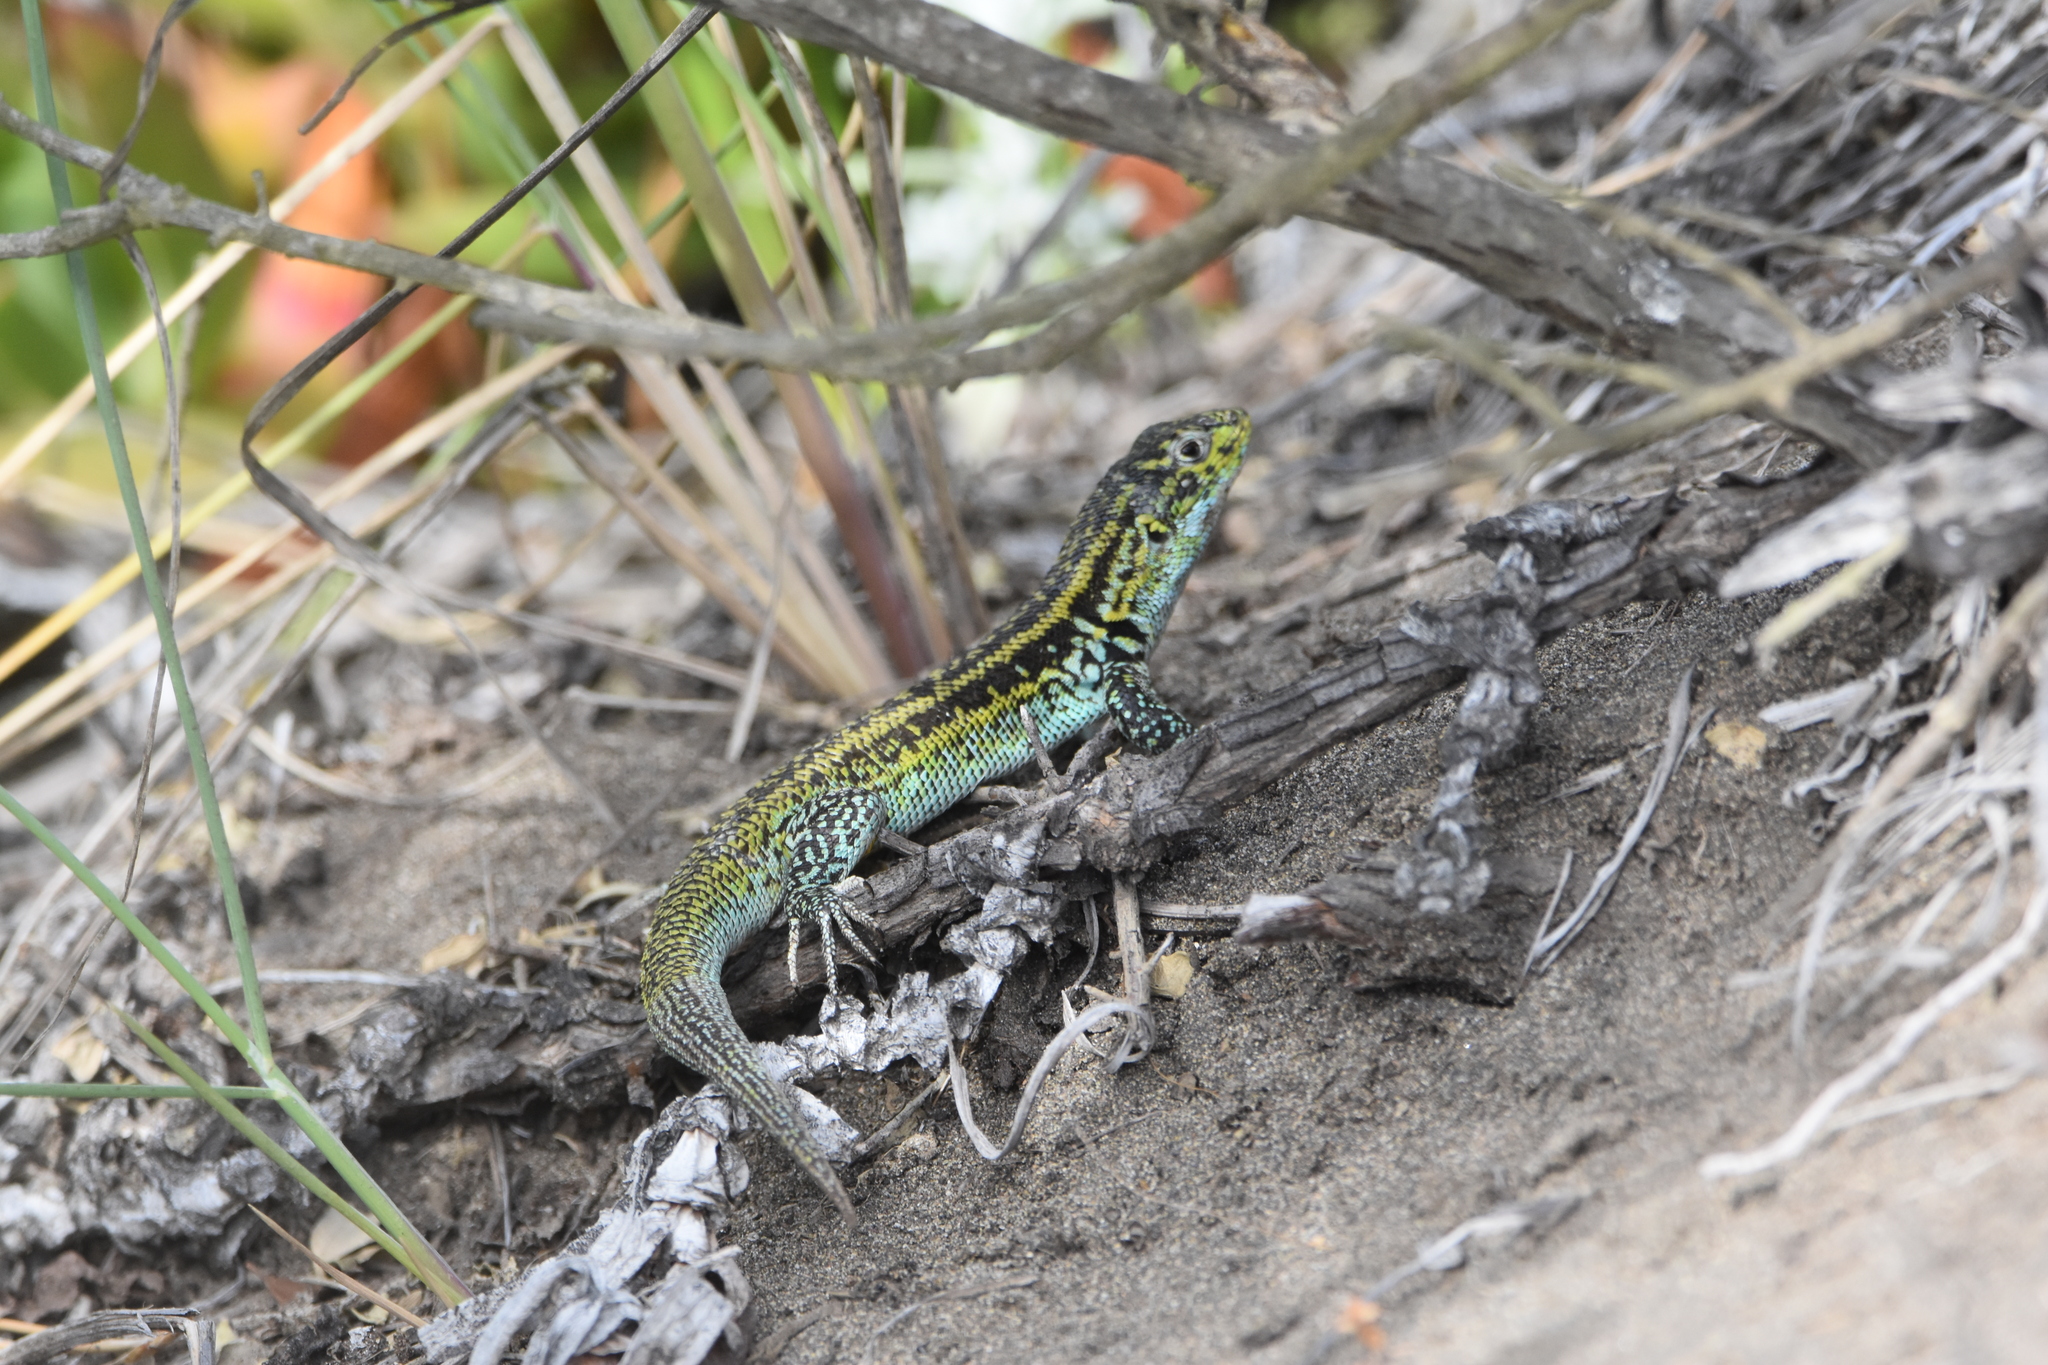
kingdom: Animalia
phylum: Chordata
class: Squamata
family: Liolaemidae
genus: Liolaemus
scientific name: Liolaemus zapallarensis
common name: Zapallaren tree iguana
